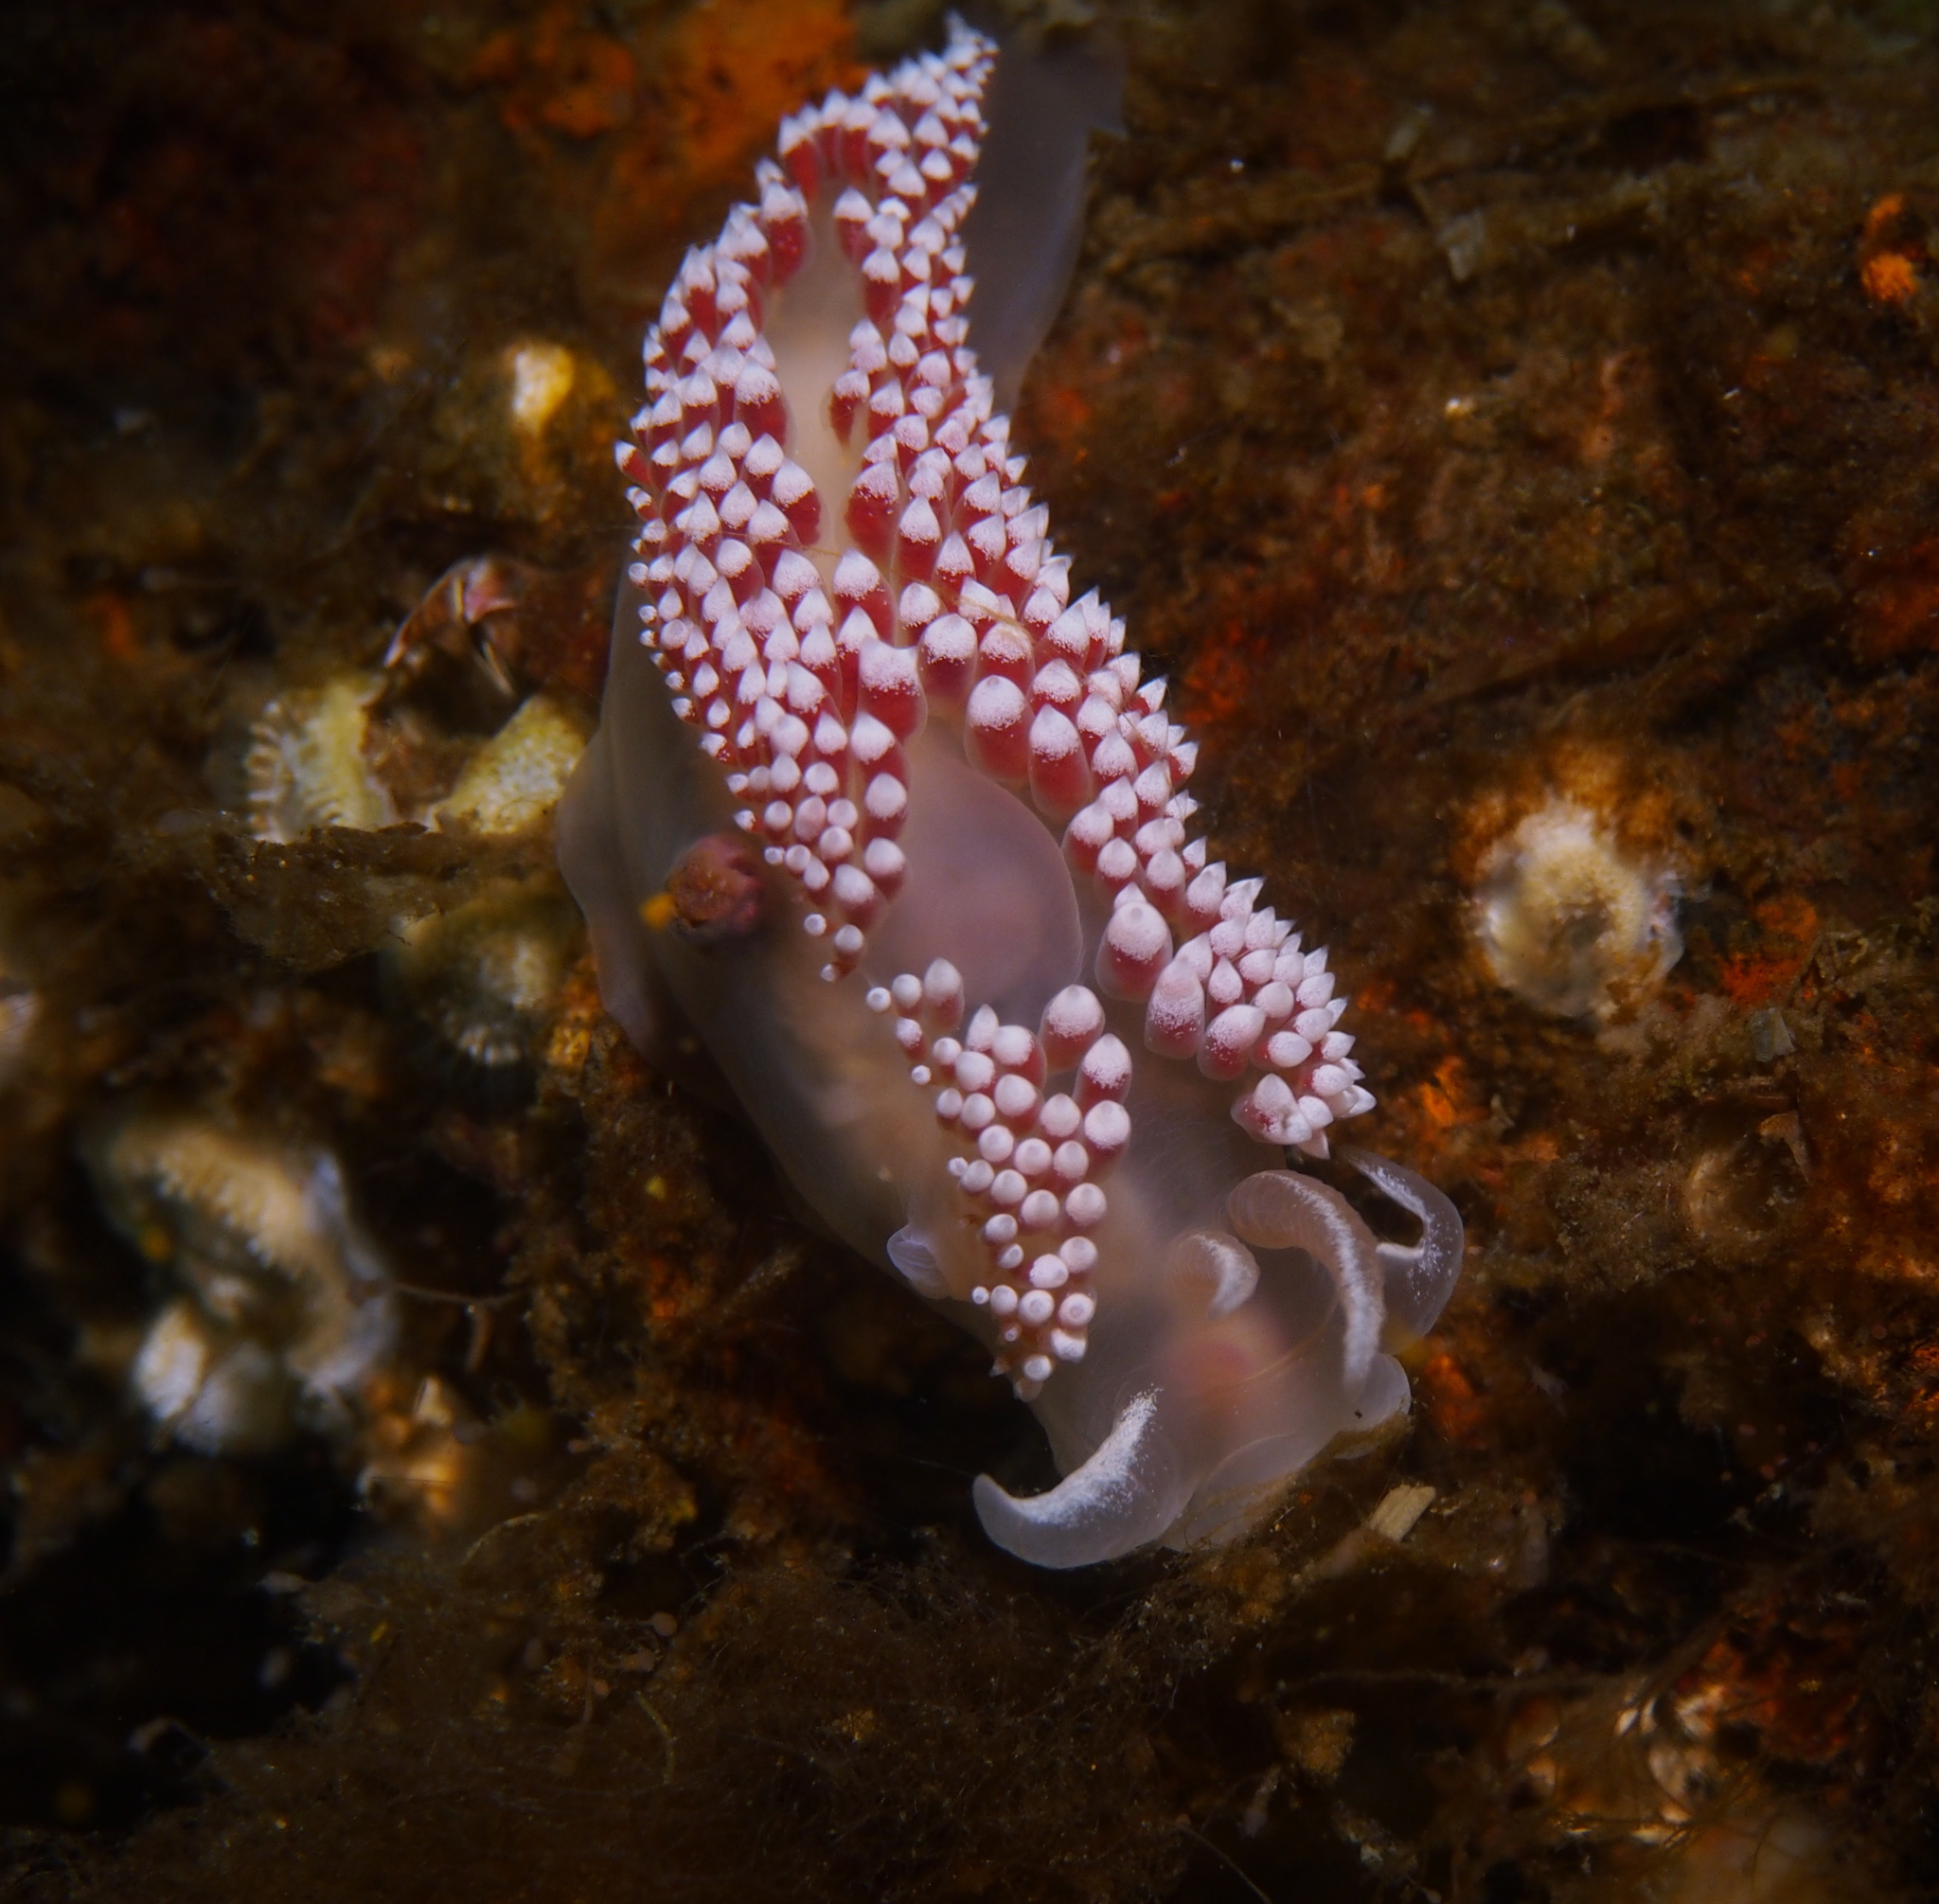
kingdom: Animalia
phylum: Mollusca
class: Gastropoda
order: Nudibranchia
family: Coryphellidae
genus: Coryphella
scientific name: Coryphella verrucosa
